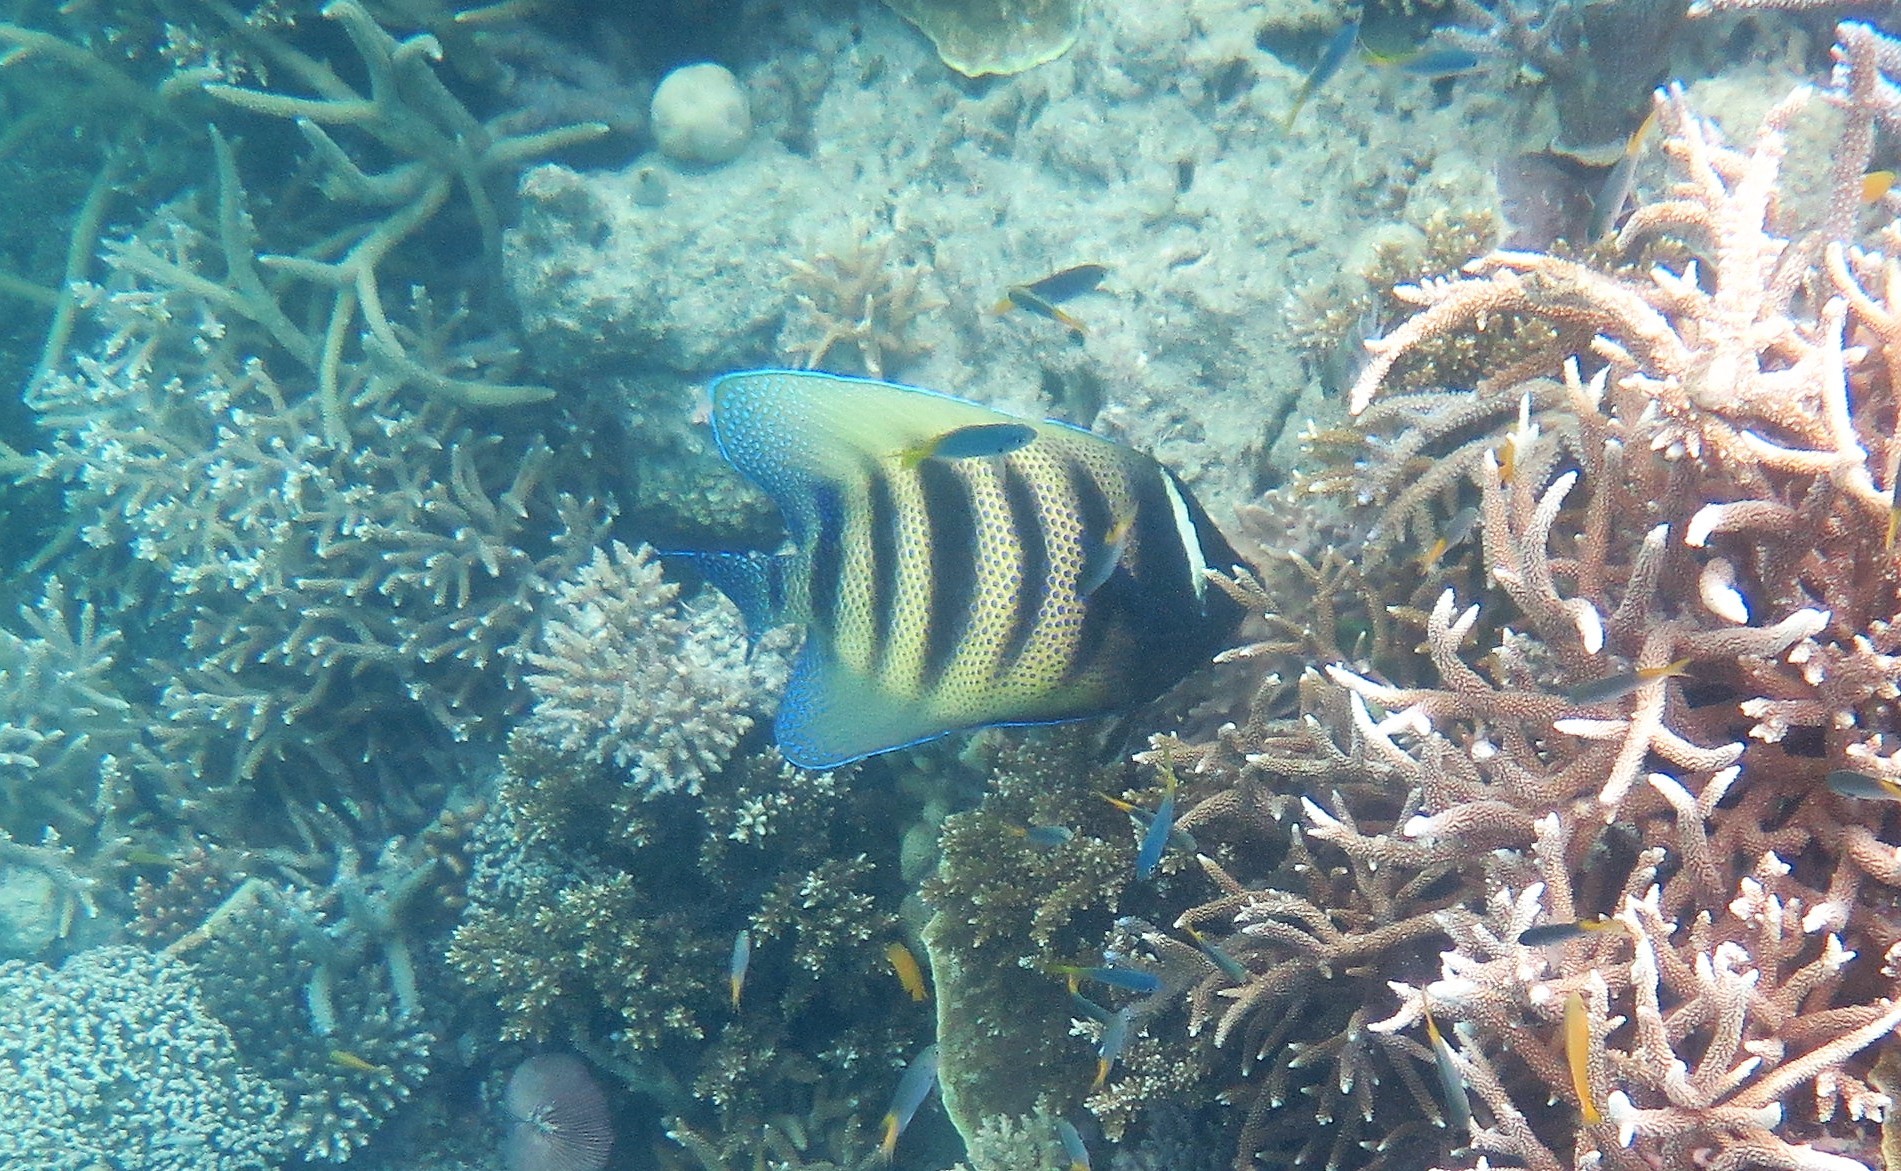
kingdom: Animalia
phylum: Chordata
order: Perciformes
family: Pomacanthidae
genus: Pomacanthus
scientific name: Pomacanthus sexstriatus
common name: Six-banded angelfish
